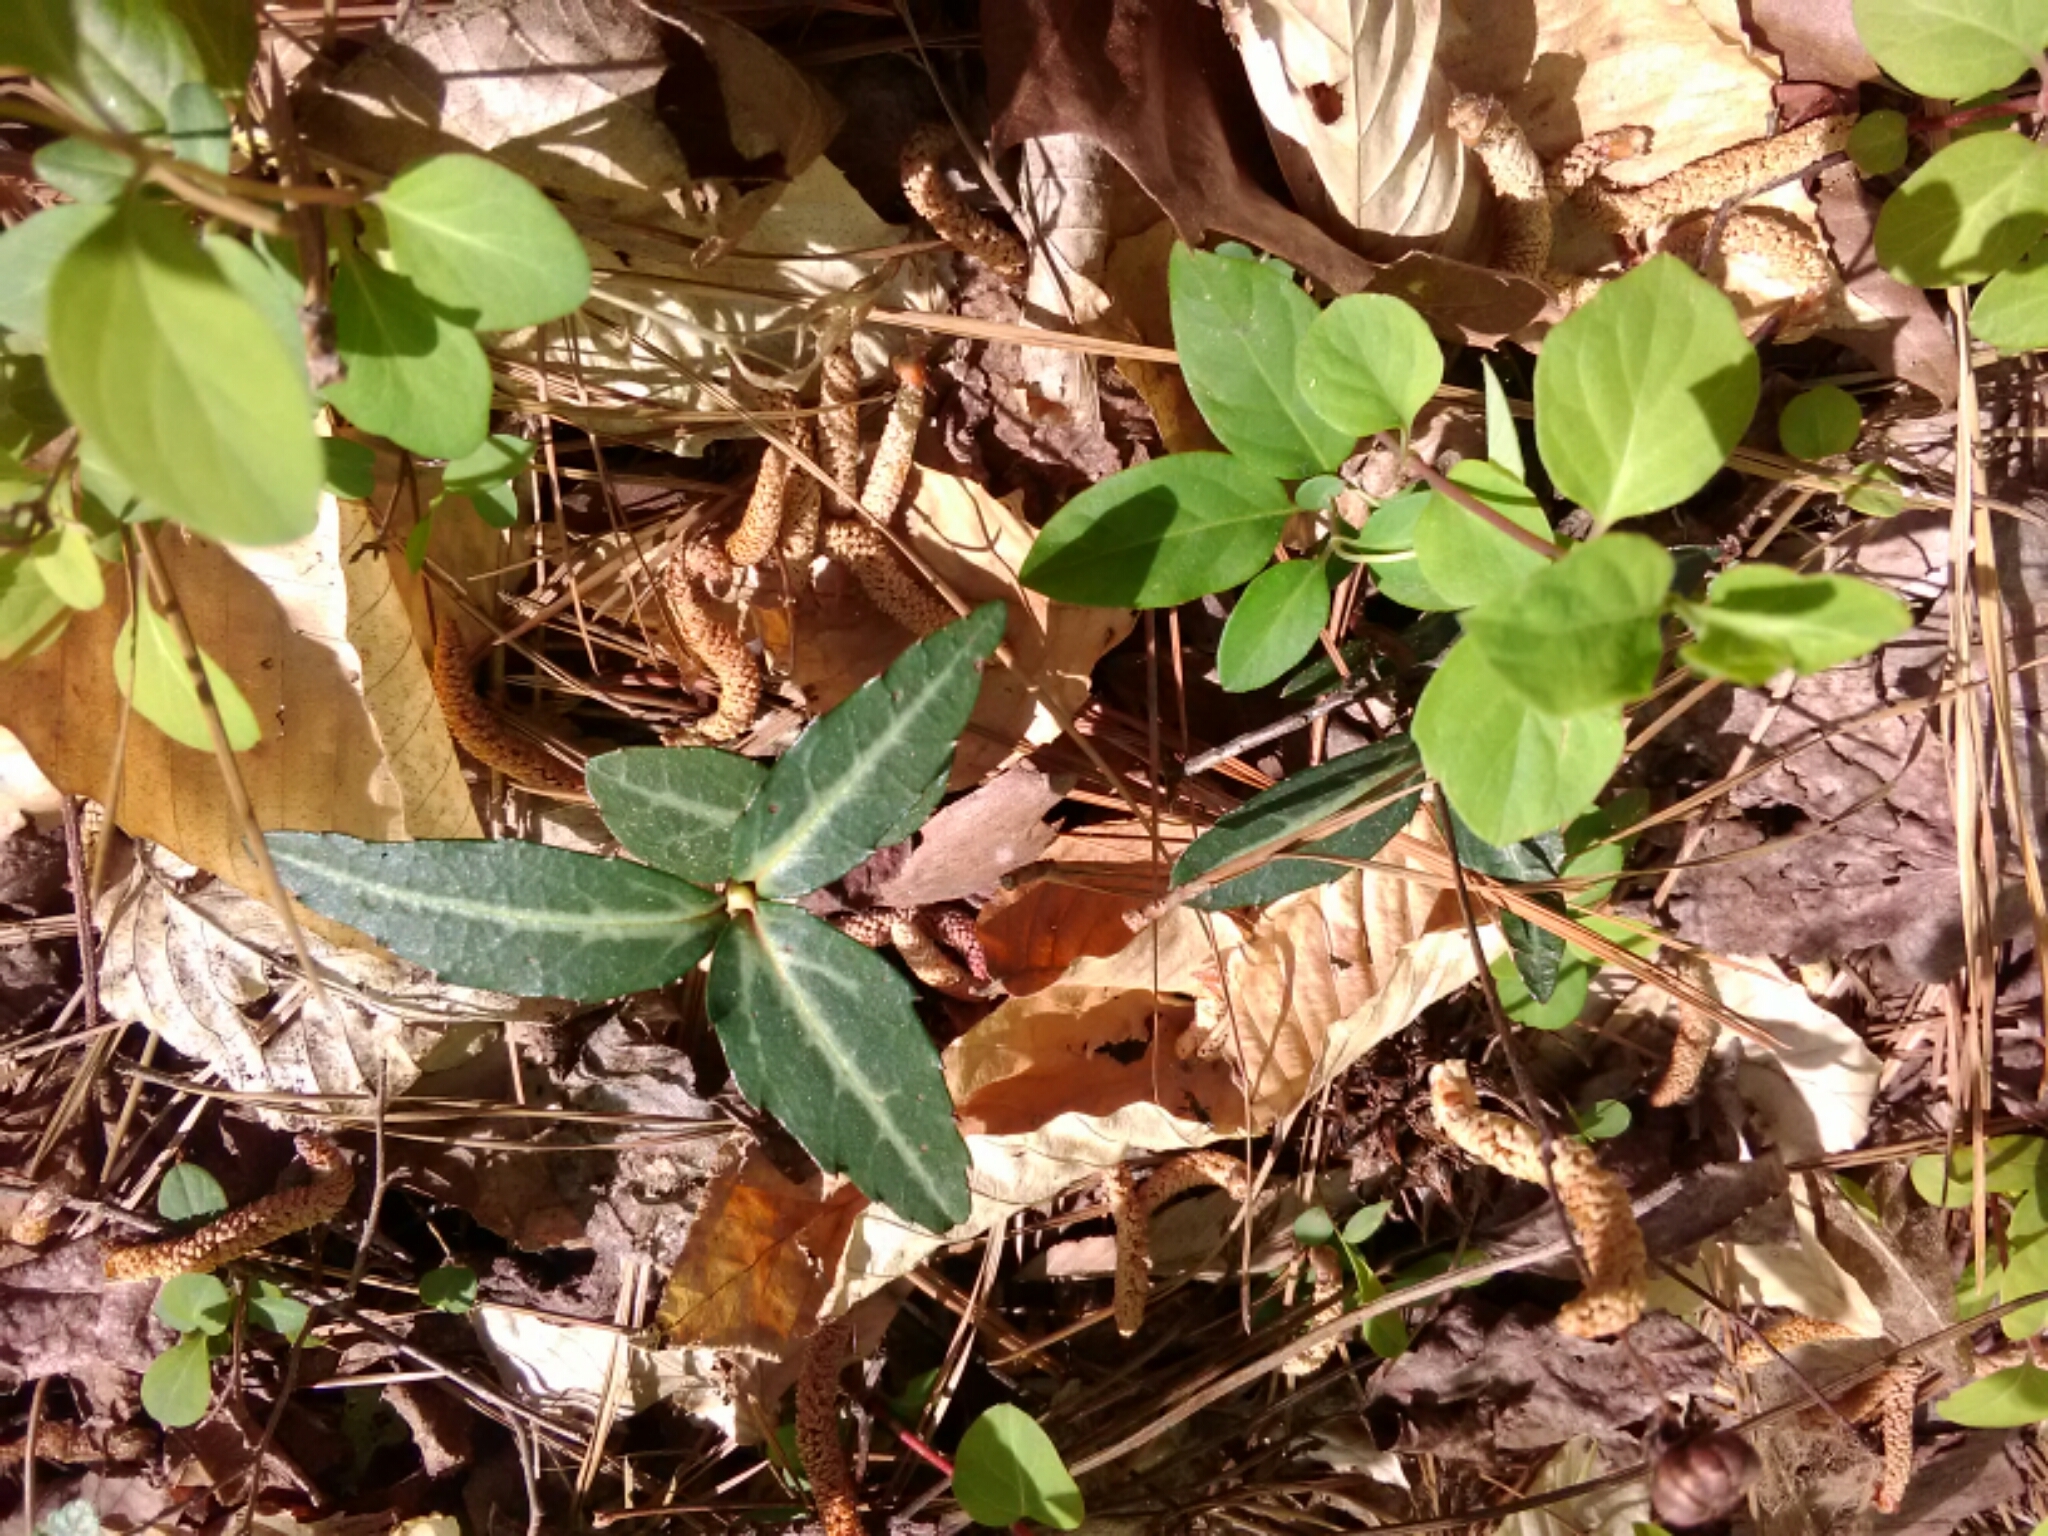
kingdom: Plantae
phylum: Tracheophyta
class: Magnoliopsida
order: Ericales
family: Ericaceae
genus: Chimaphila
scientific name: Chimaphila maculata
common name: Spotted pipsissewa
